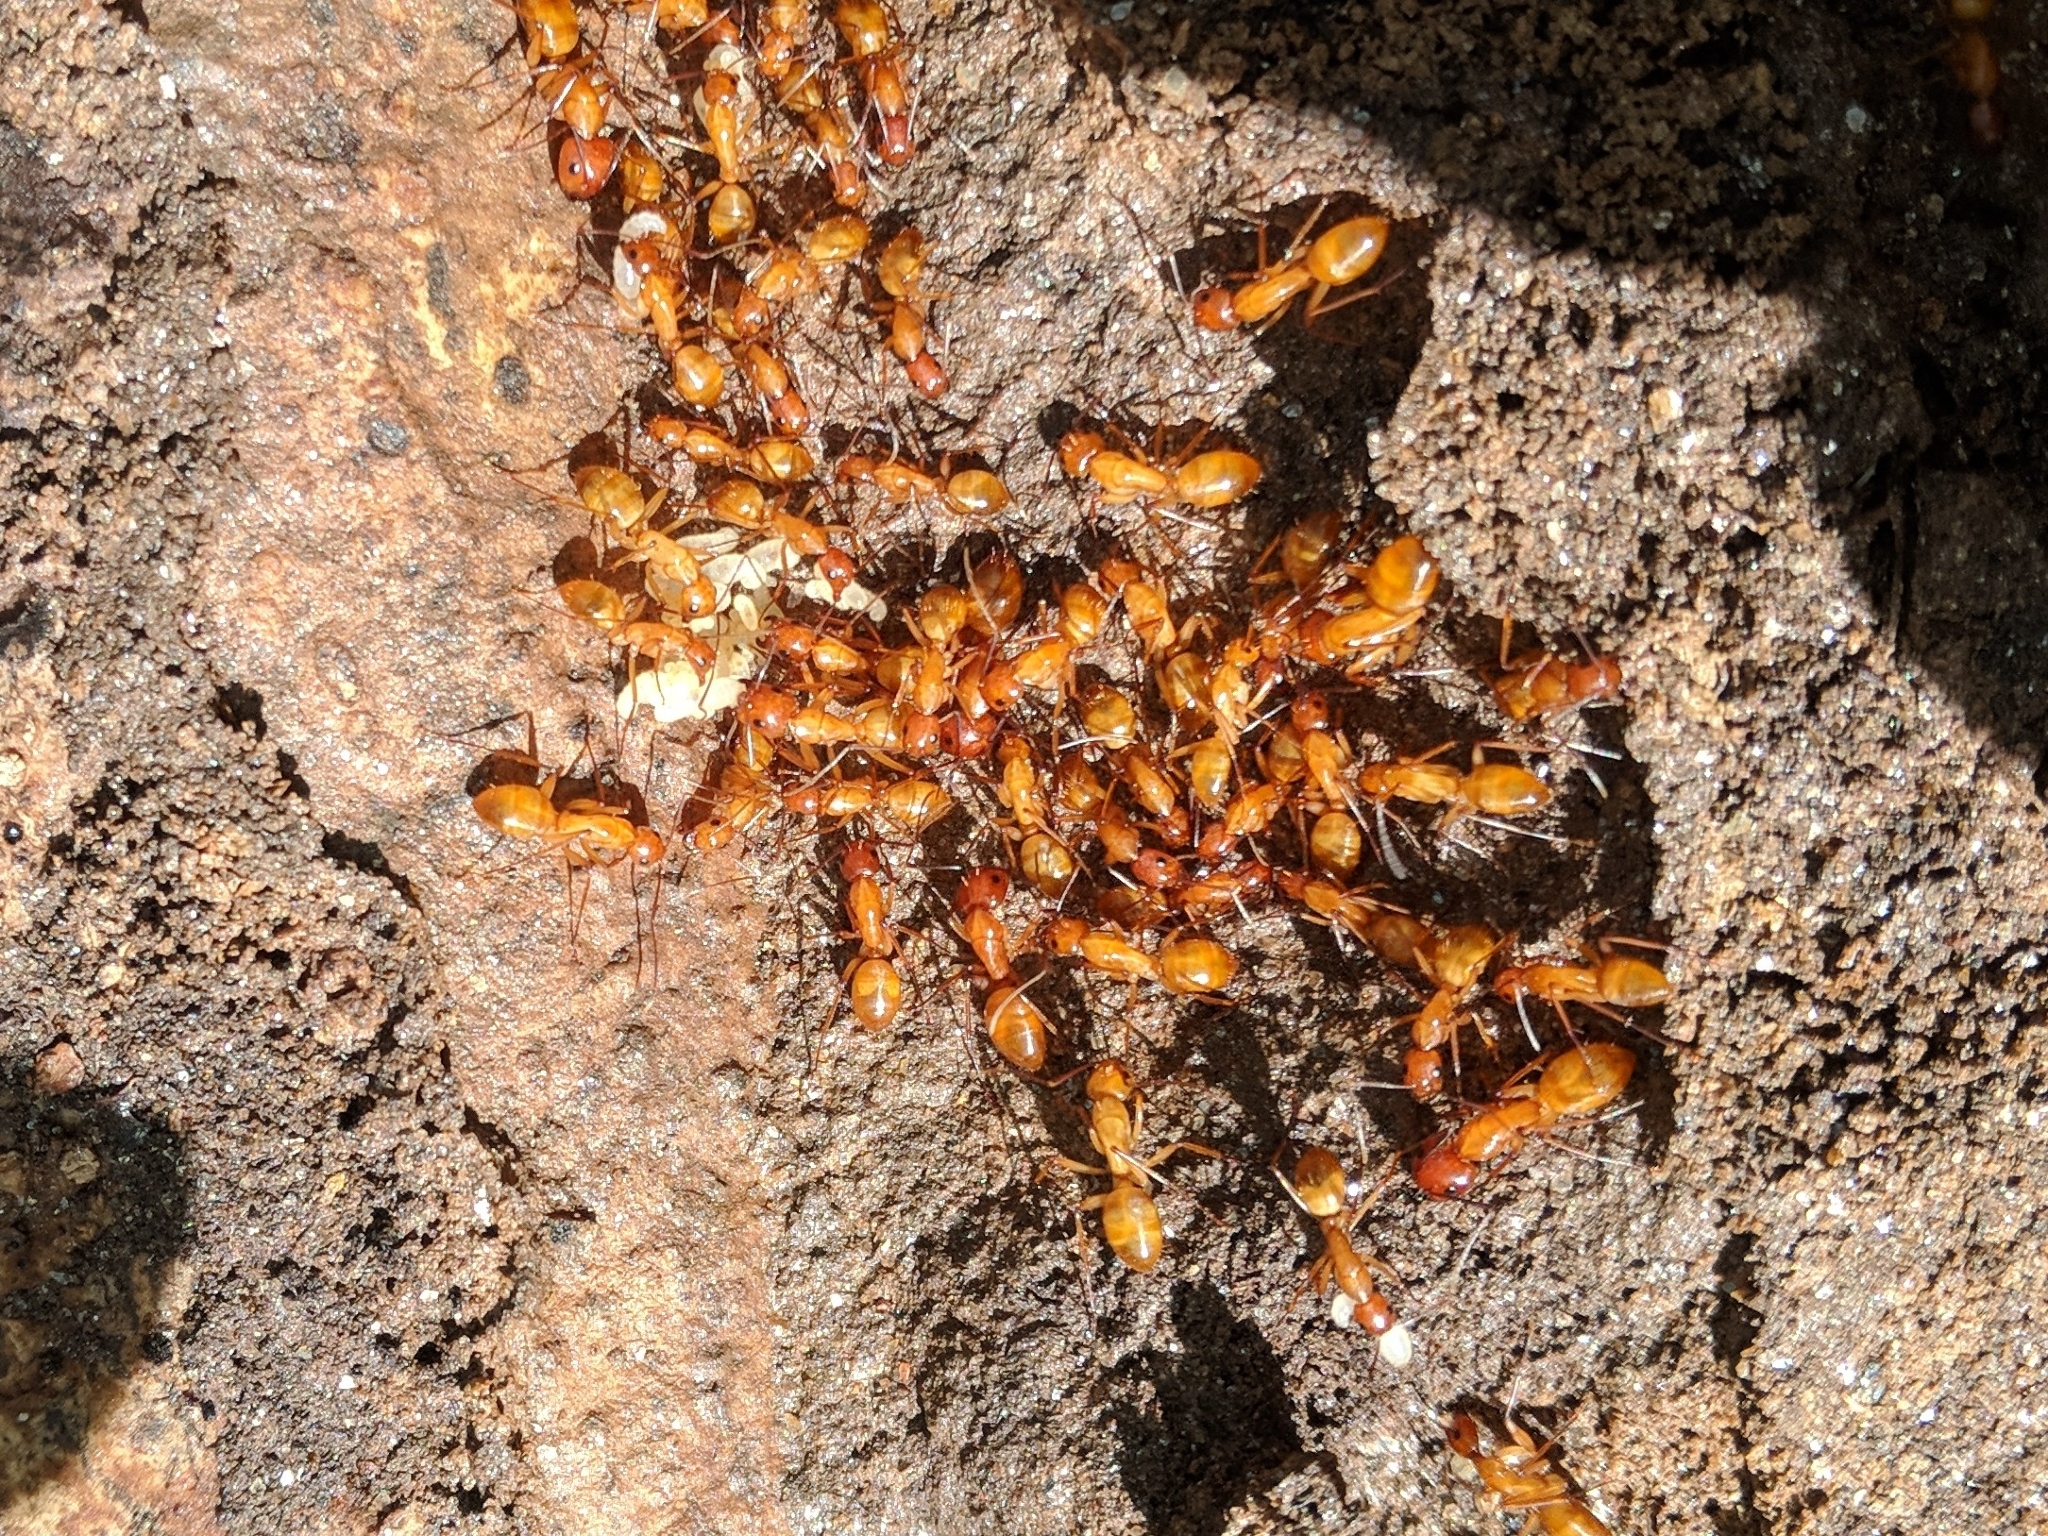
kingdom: Animalia
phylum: Arthropoda
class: Insecta
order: Hymenoptera
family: Formicidae
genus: Camponotus
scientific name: Camponotus castaneus
